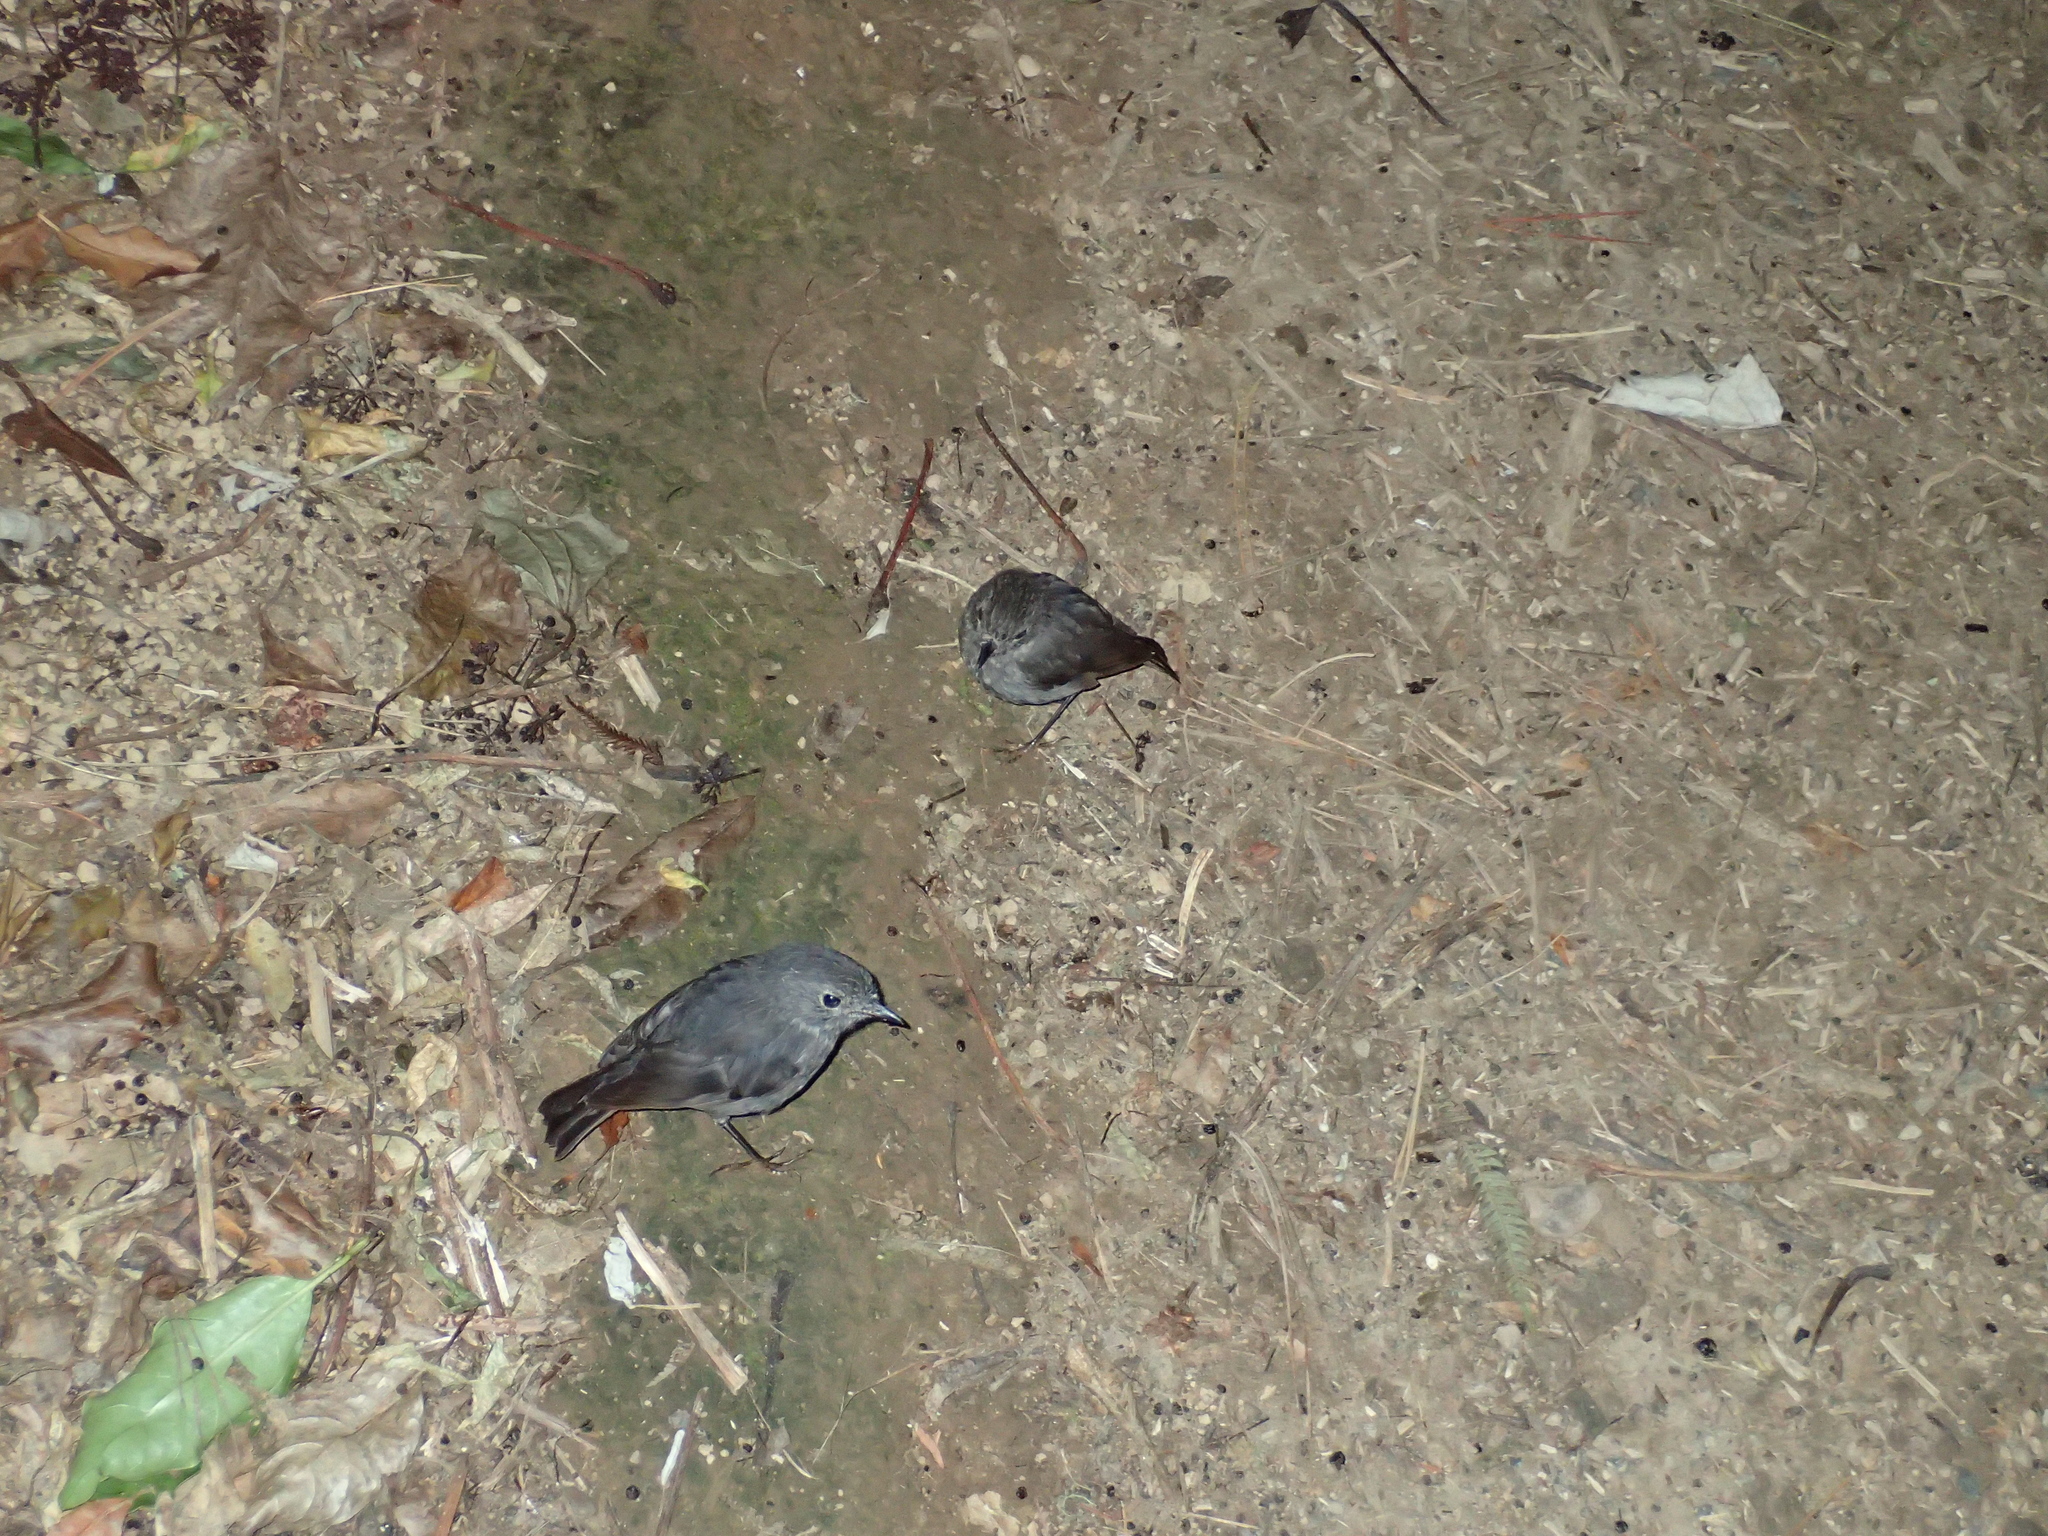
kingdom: Animalia
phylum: Chordata
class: Aves
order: Passeriformes
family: Petroicidae
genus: Petroica
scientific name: Petroica australis
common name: New zealand robin
